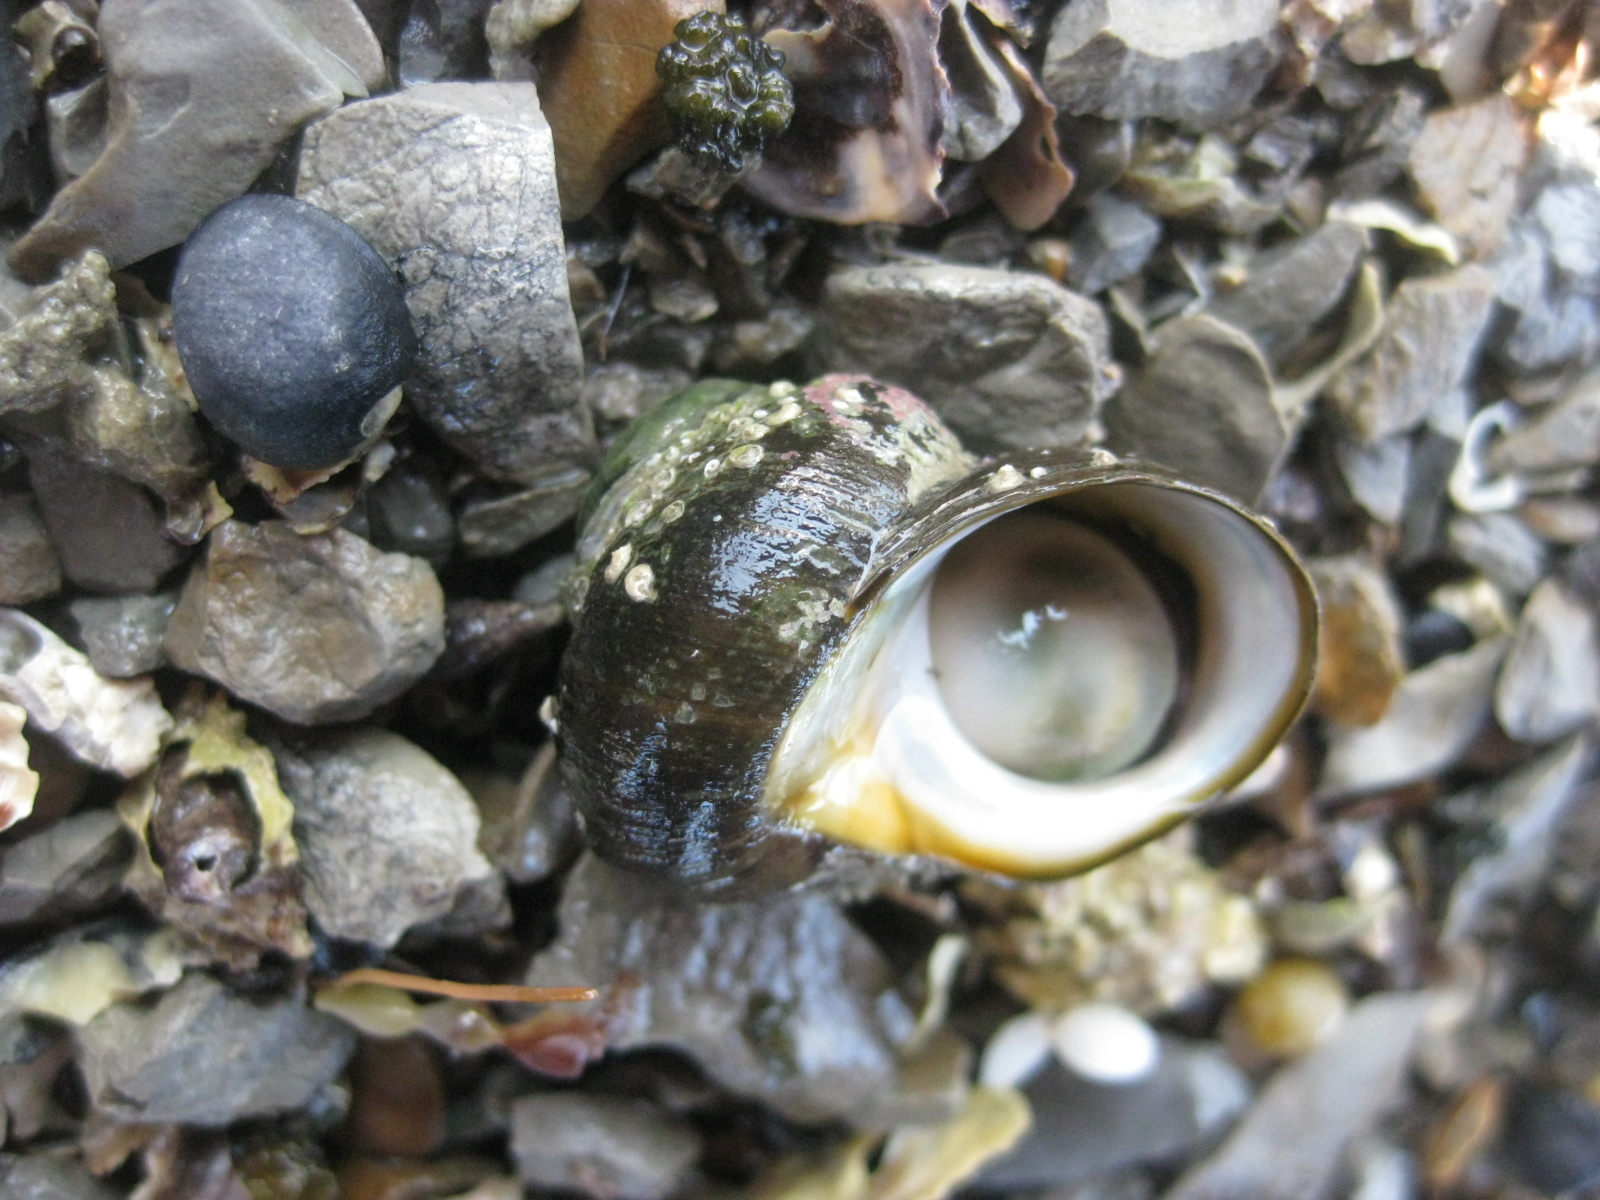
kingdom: Animalia
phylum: Mollusca
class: Gastropoda
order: Trochida
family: Turbinidae
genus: Lunella
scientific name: Lunella smaragda
